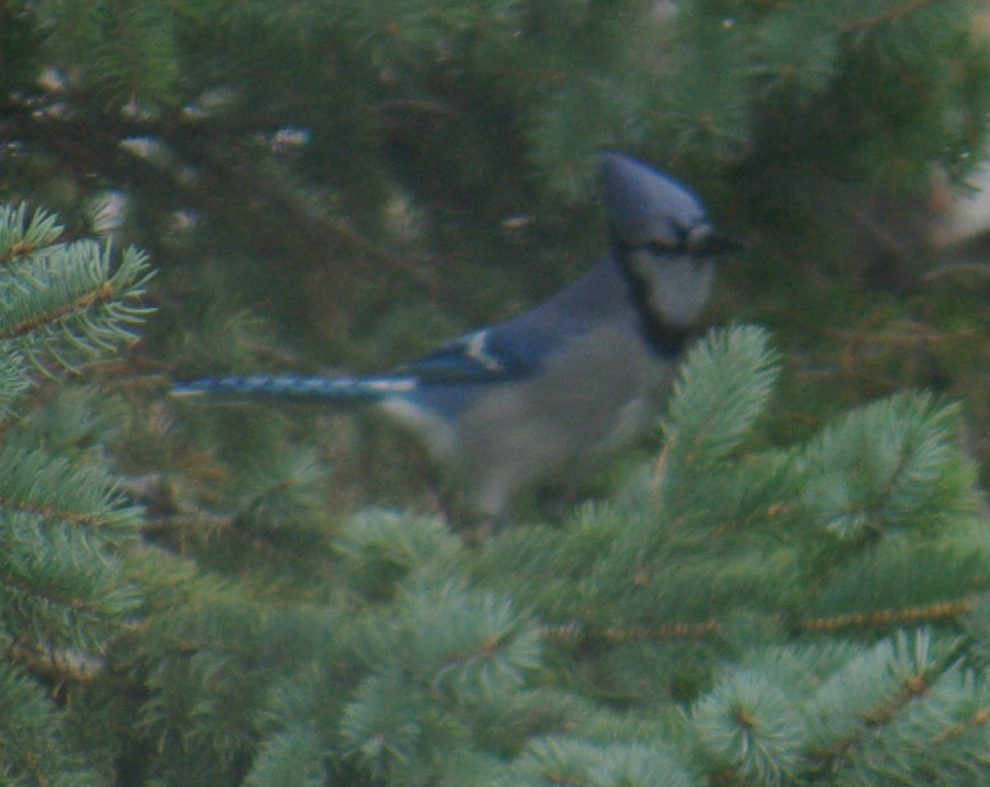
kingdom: Animalia
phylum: Chordata
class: Aves
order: Passeriformes
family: Corvidae
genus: Cyanocitta
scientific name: Cyanocitta cristata
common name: Blue jay
